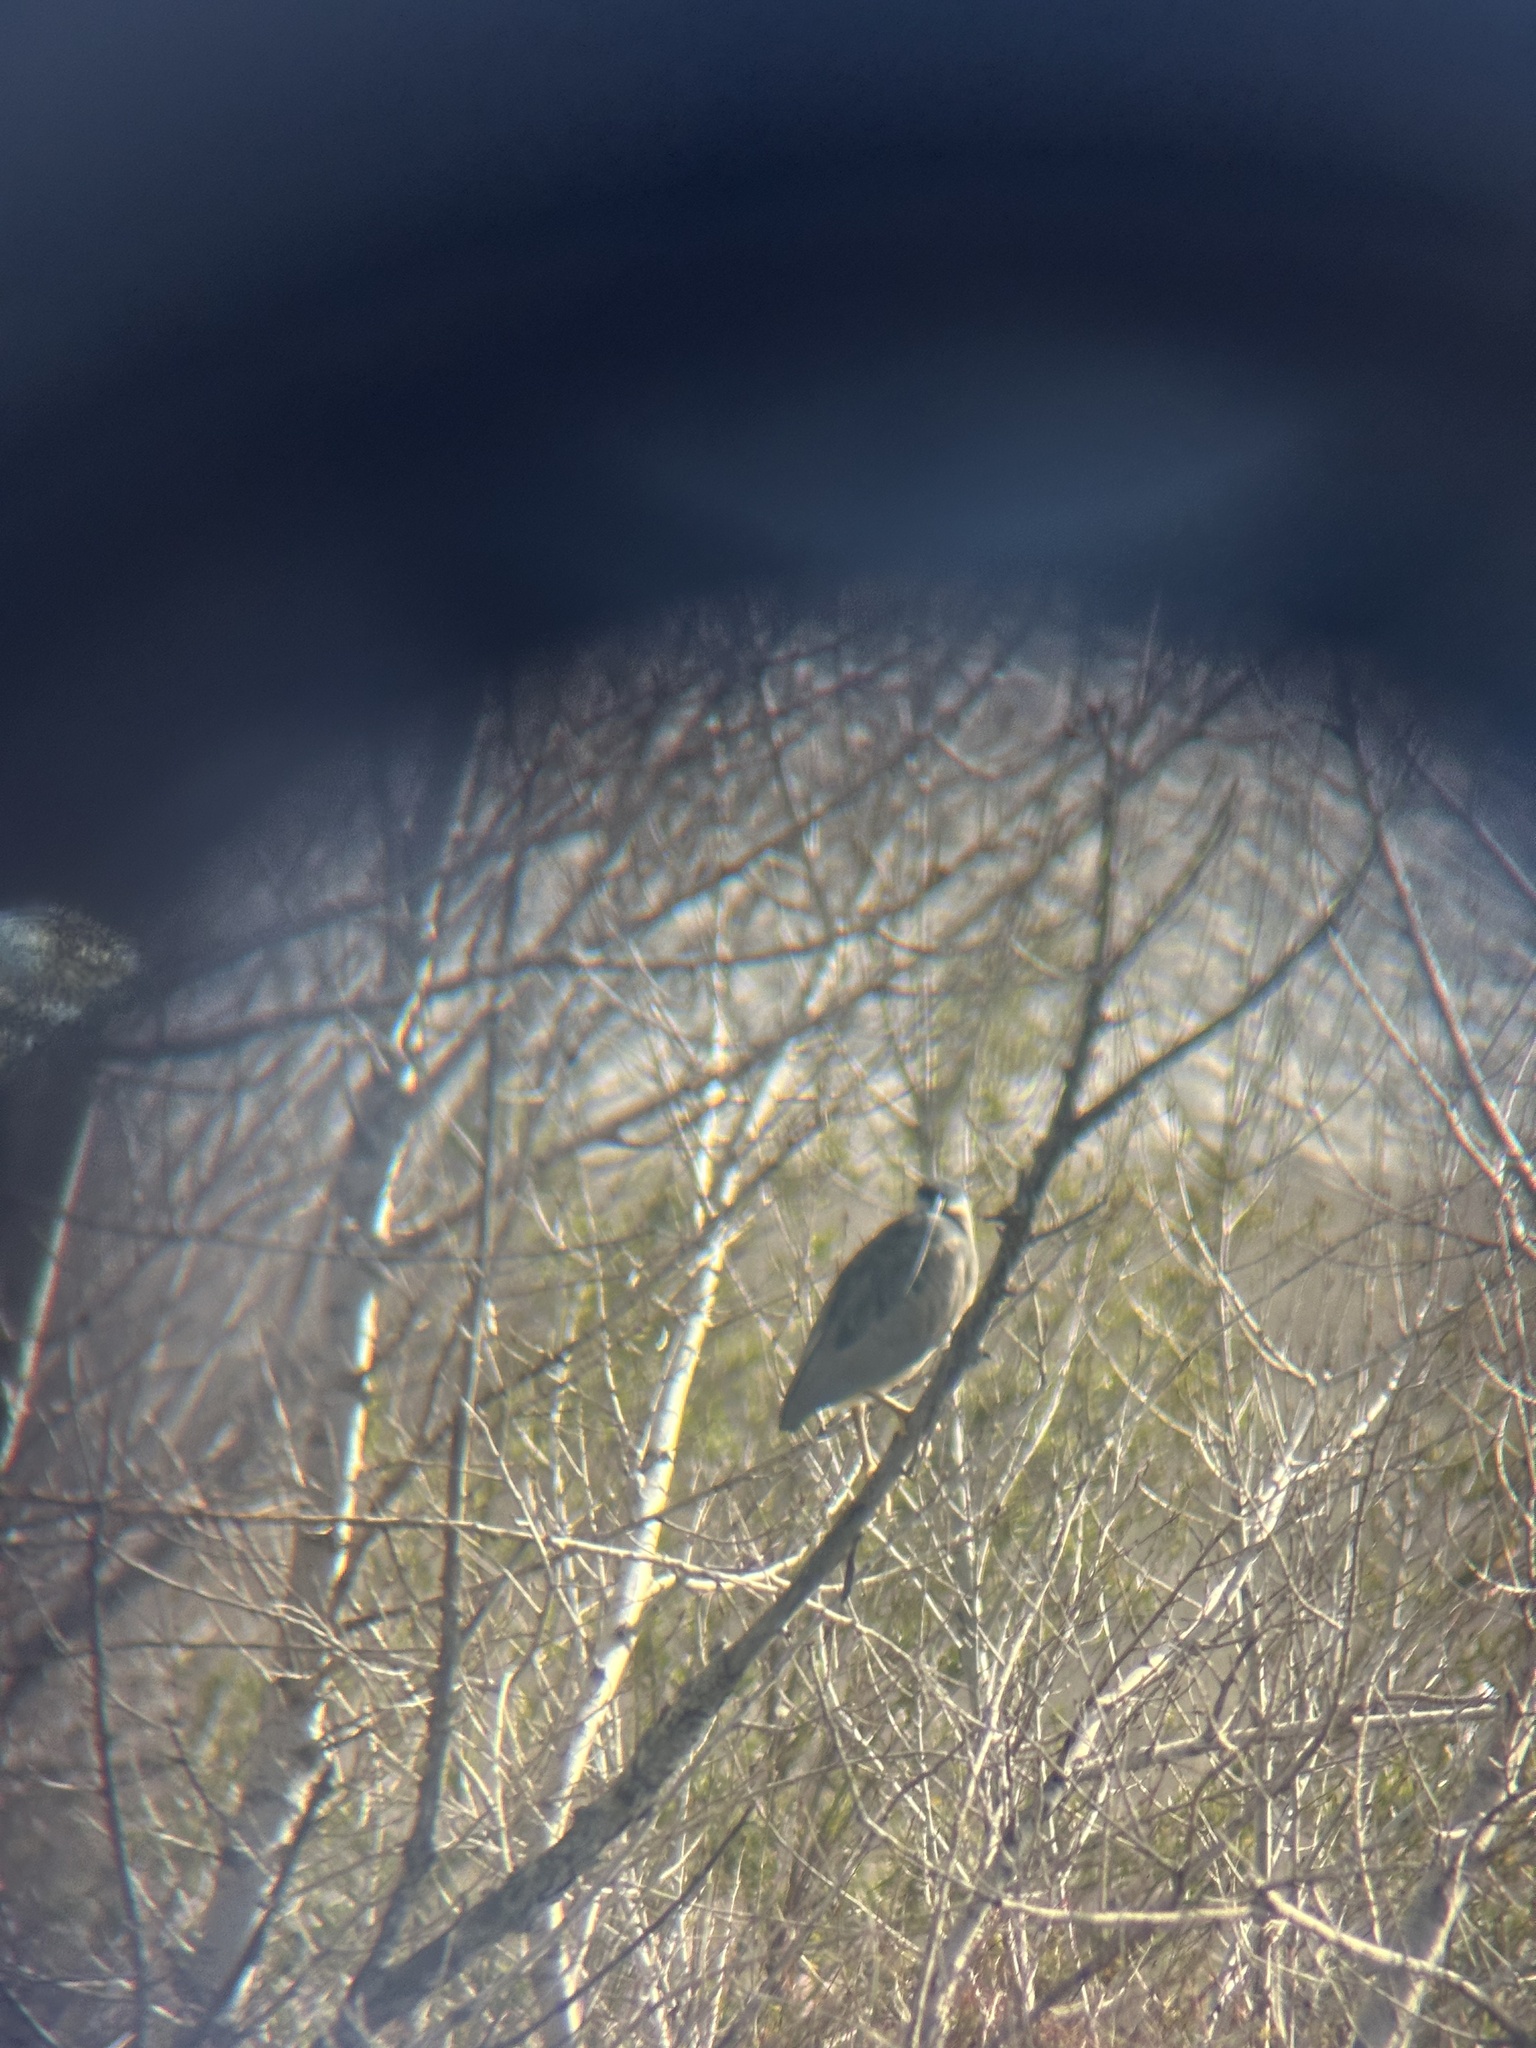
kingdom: Animalia
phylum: Chordata
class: Aves
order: Pelecaniformes
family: Ardeidae
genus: Nycticorax
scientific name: Nycticorax nycticorax
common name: Black-crowned night heron
